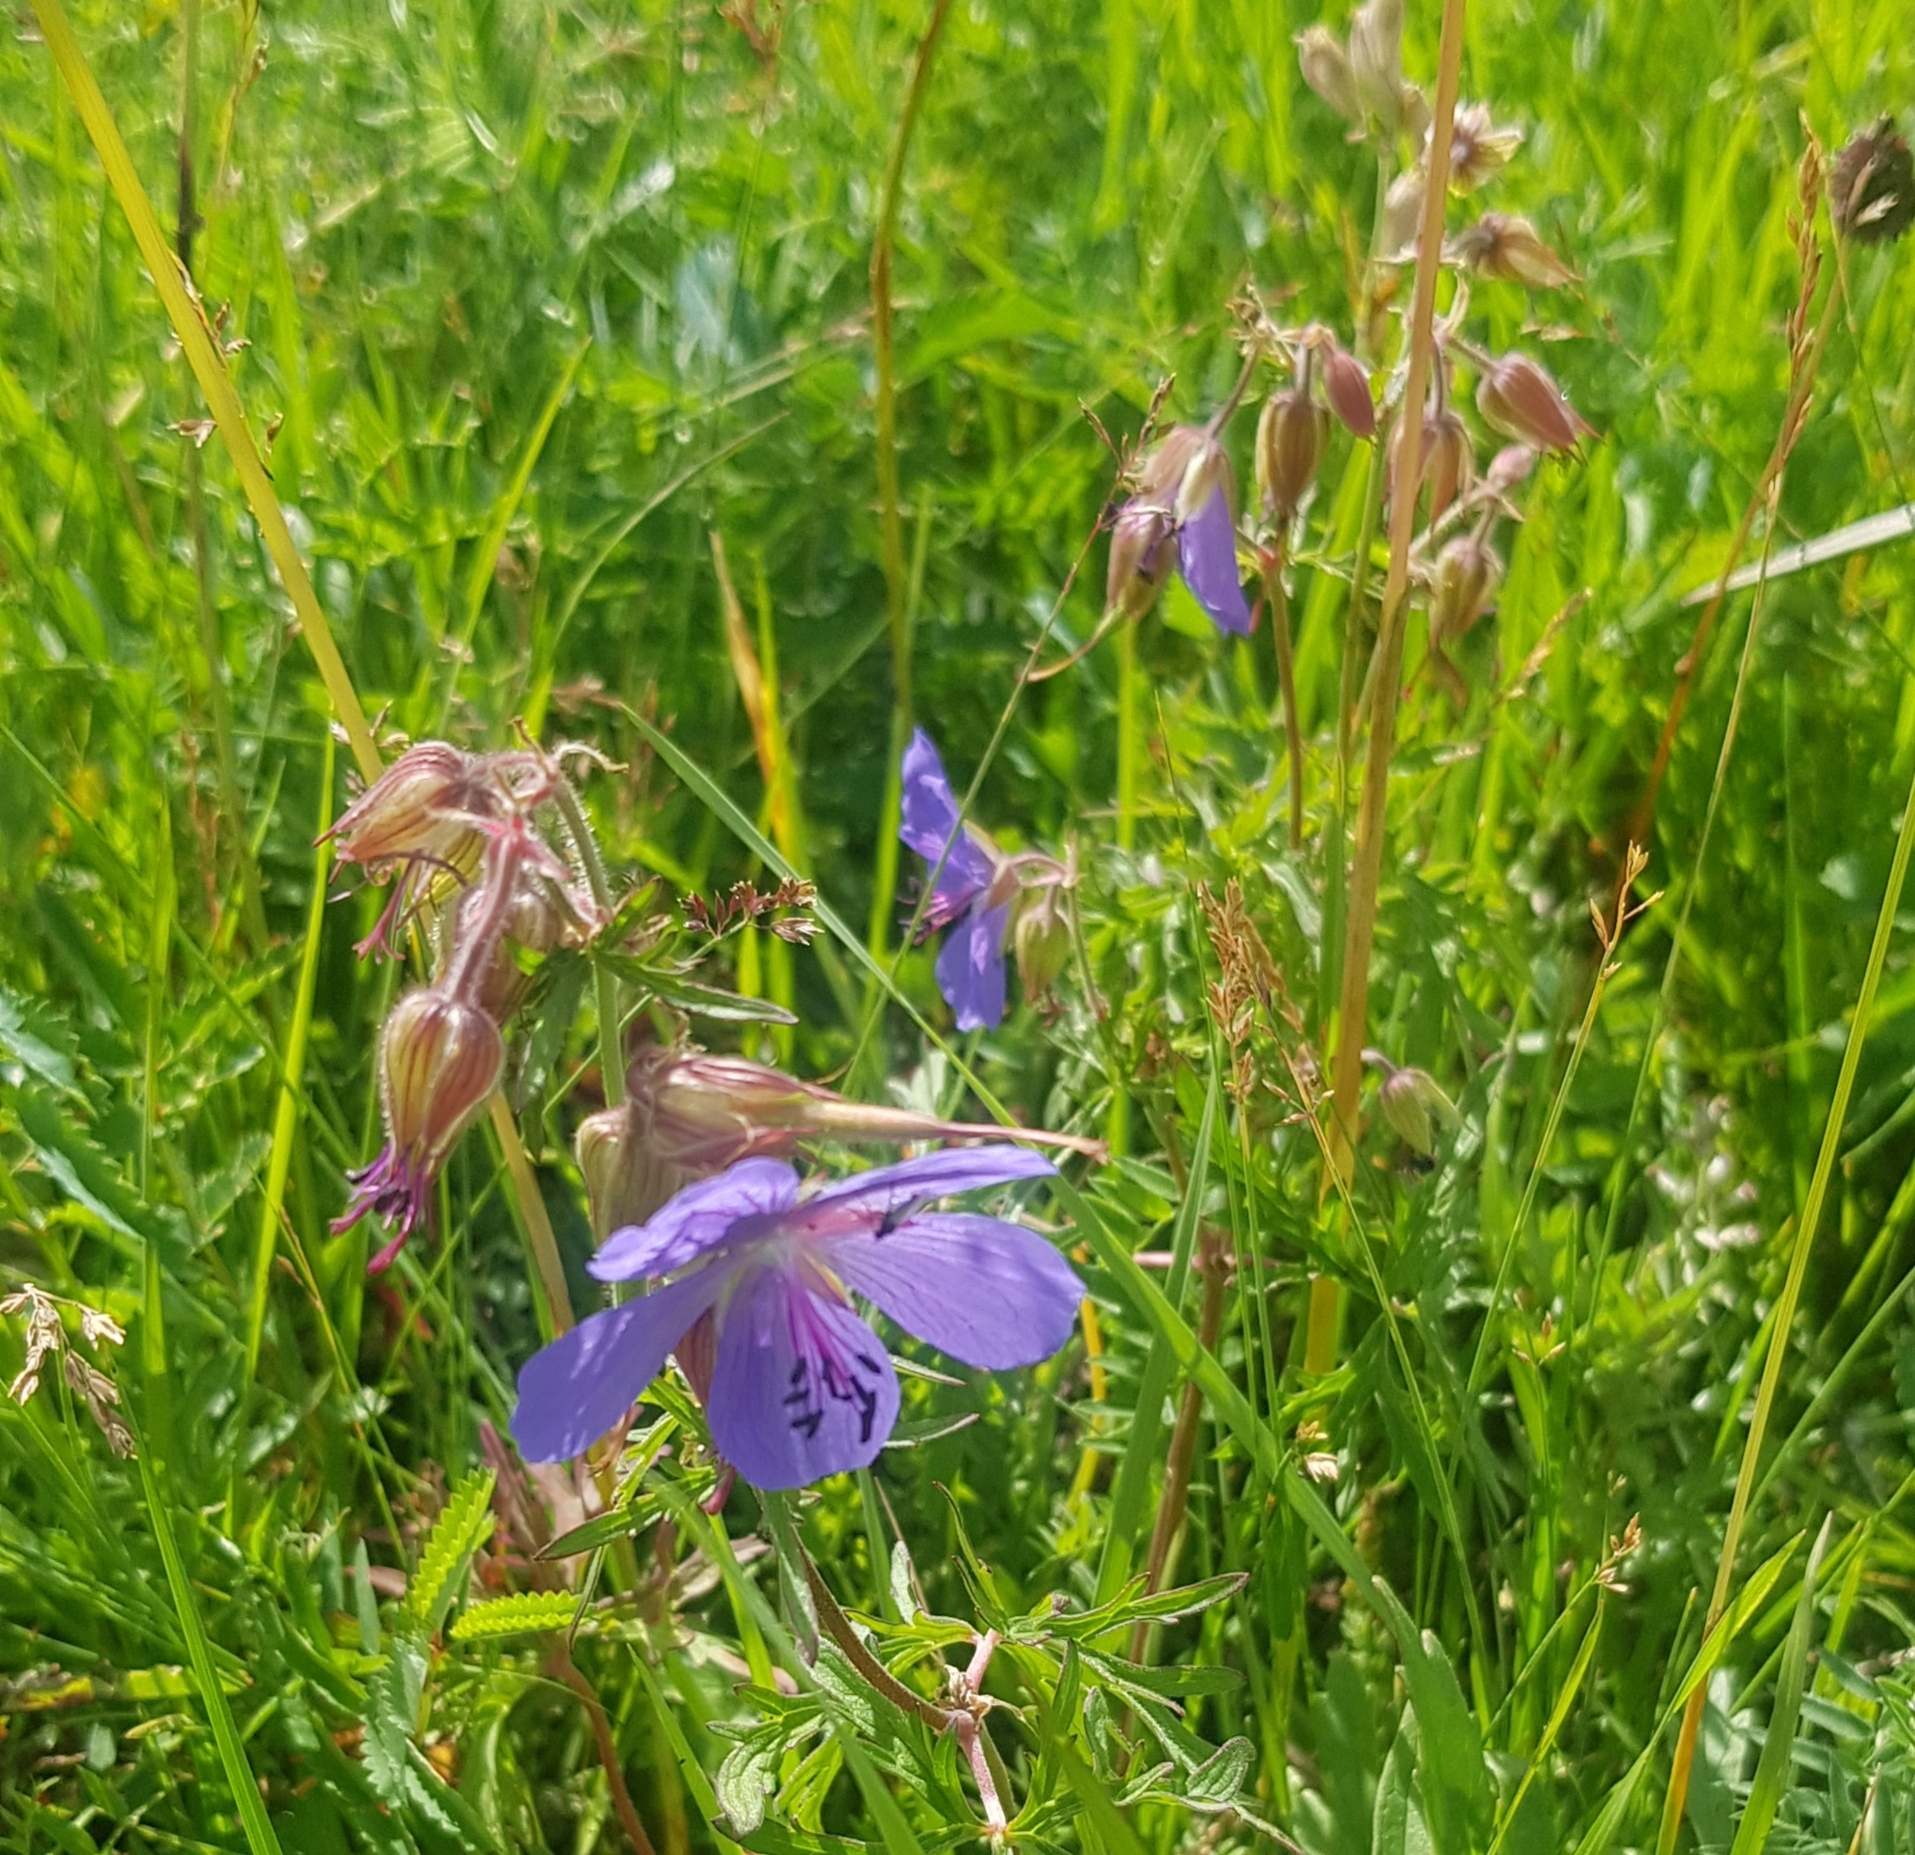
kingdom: Plantae
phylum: Tracheophyta
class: Magnoliopsida
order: Geraniales
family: Geraniaceae
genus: Geranium
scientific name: Geranium pratense
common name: Meadow crane's-bill
